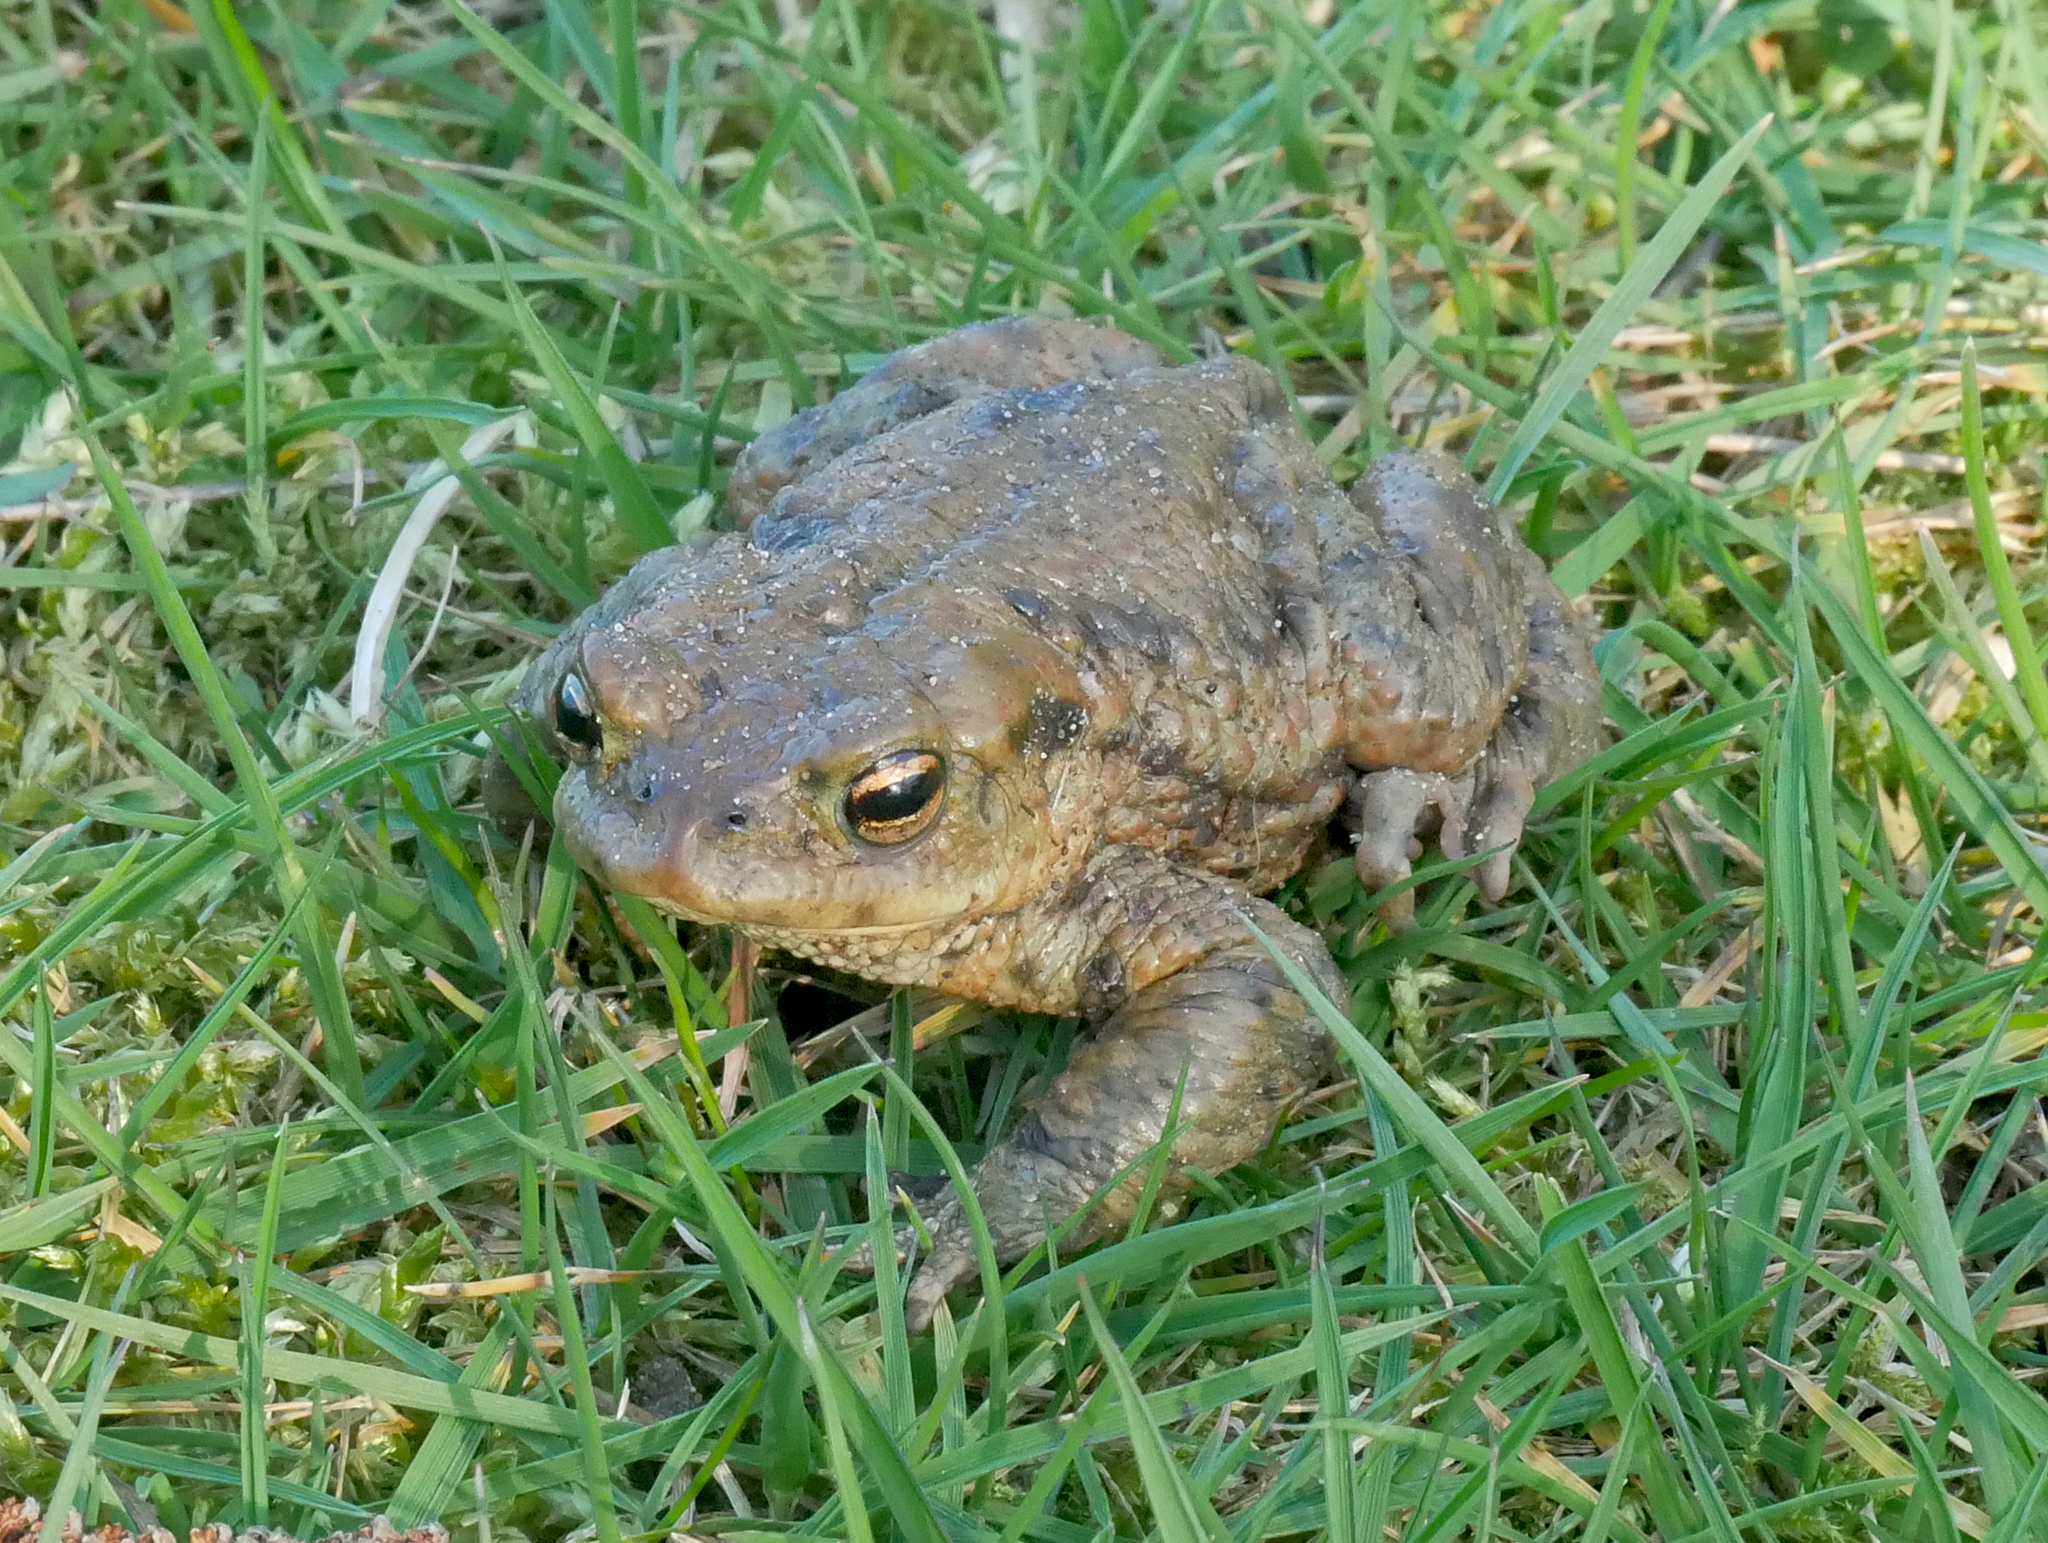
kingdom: Animalia
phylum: Chordata
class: Amphibia
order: Anura
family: Bufonidae
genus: Bufo
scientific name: Bufo bufo
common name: Common toad
